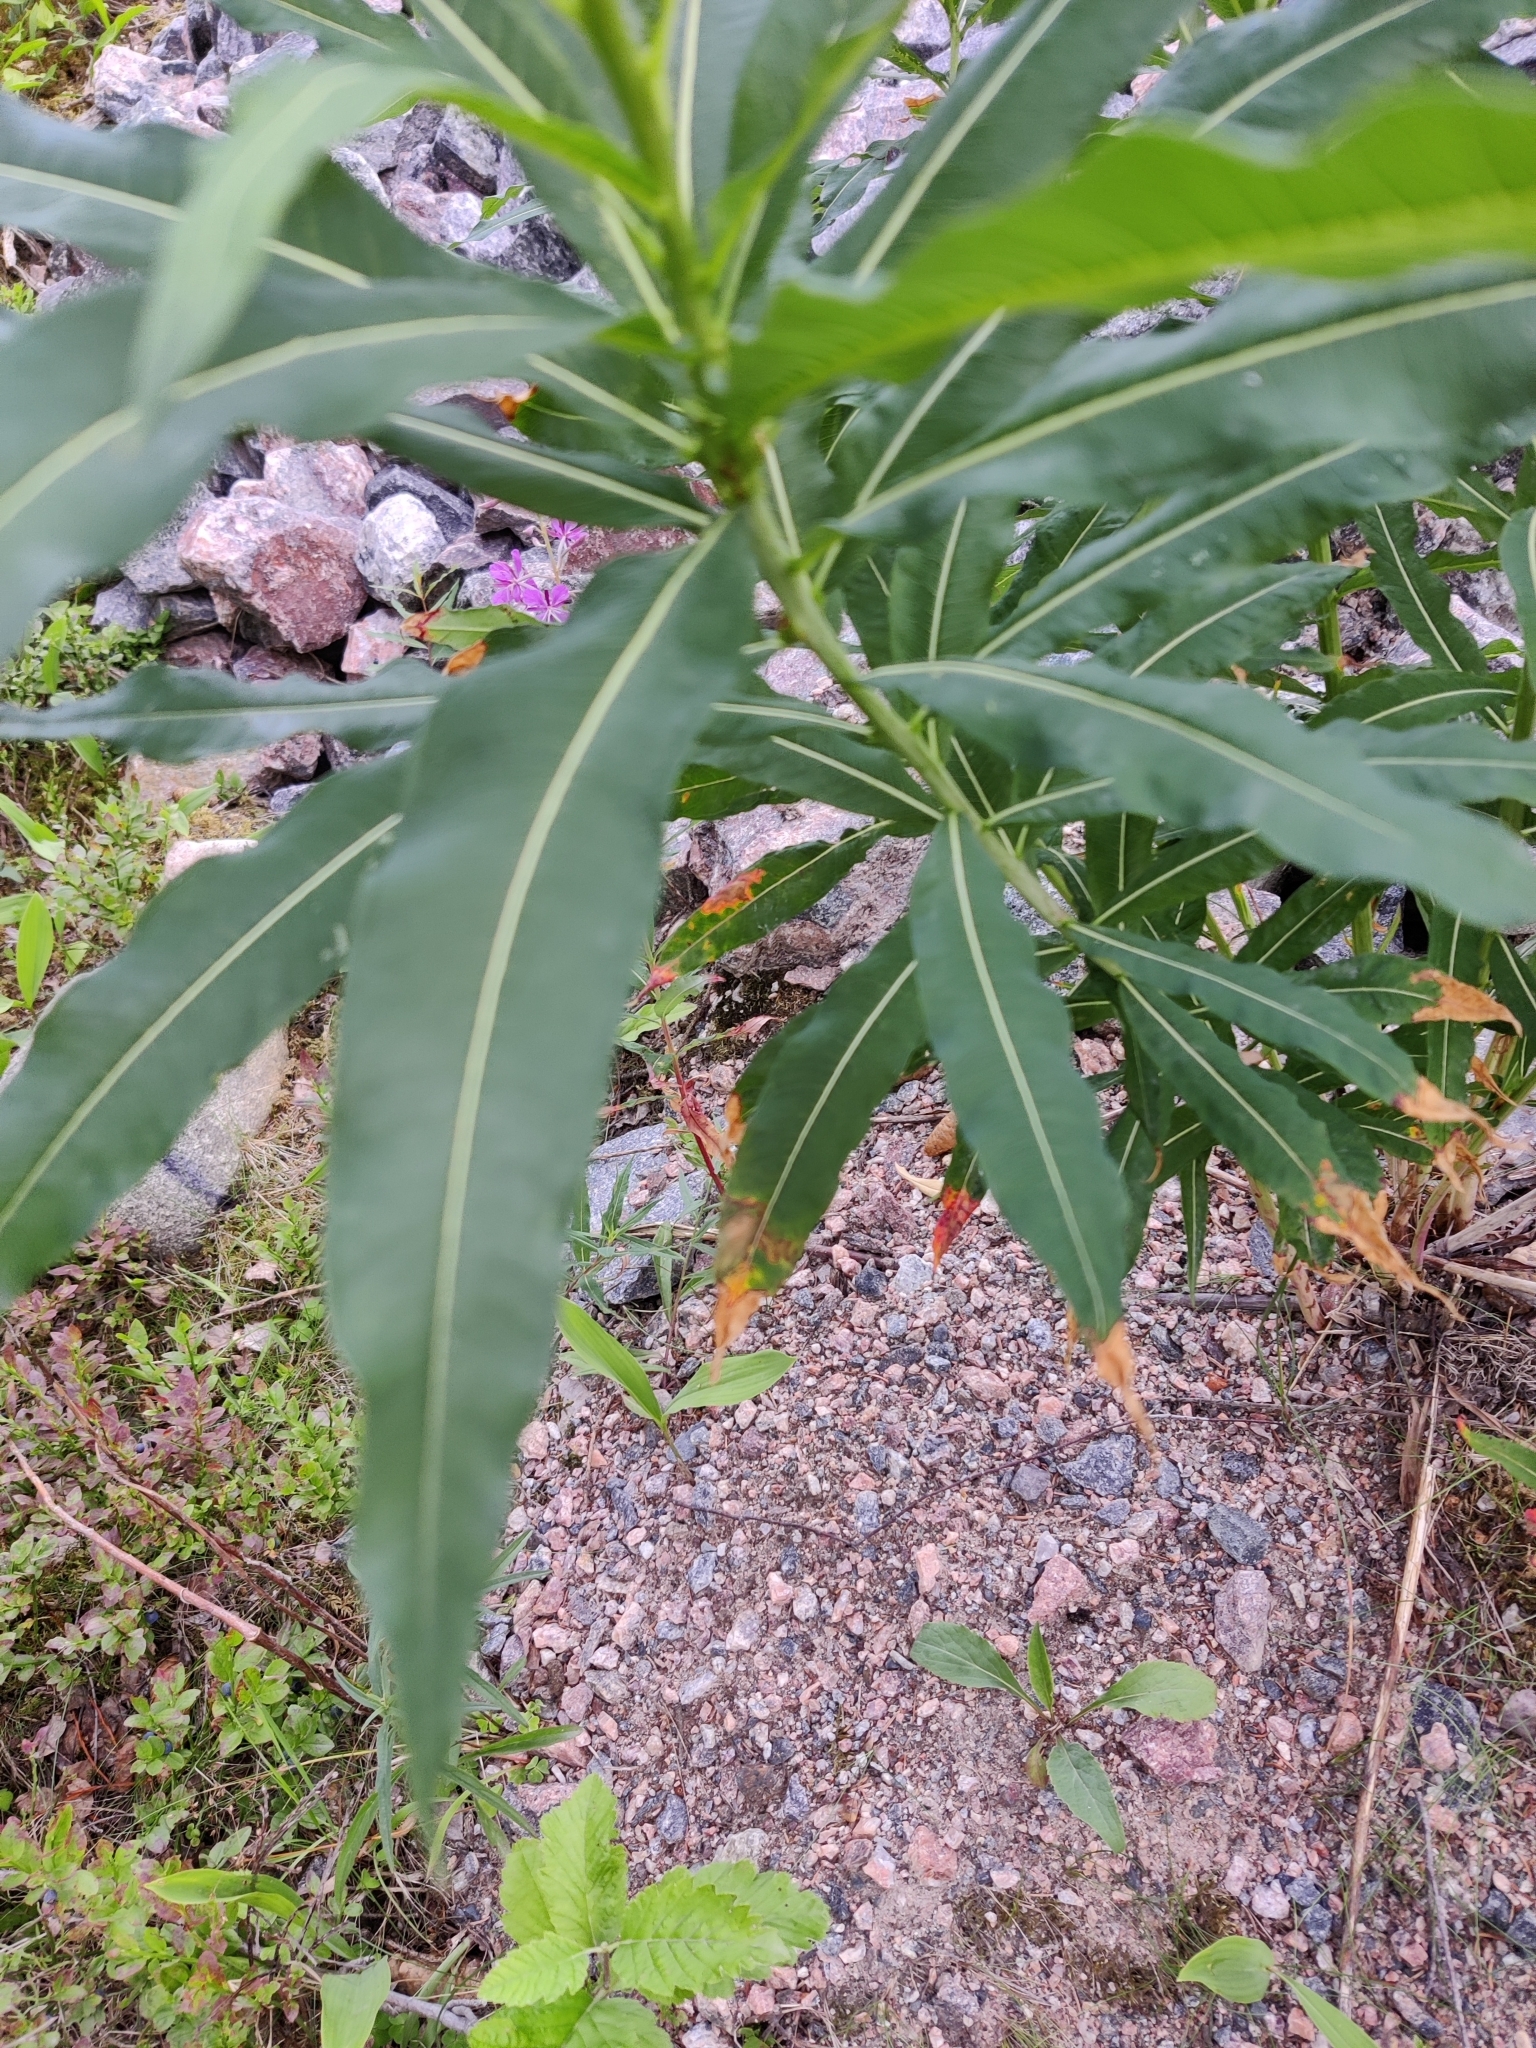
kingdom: Plantae
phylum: Tracheophyta
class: Magnoliopsida
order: Myrtales
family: Onagraceae
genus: Chamaenerion
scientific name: Chamaenerion angustifolium
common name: Fireweed
